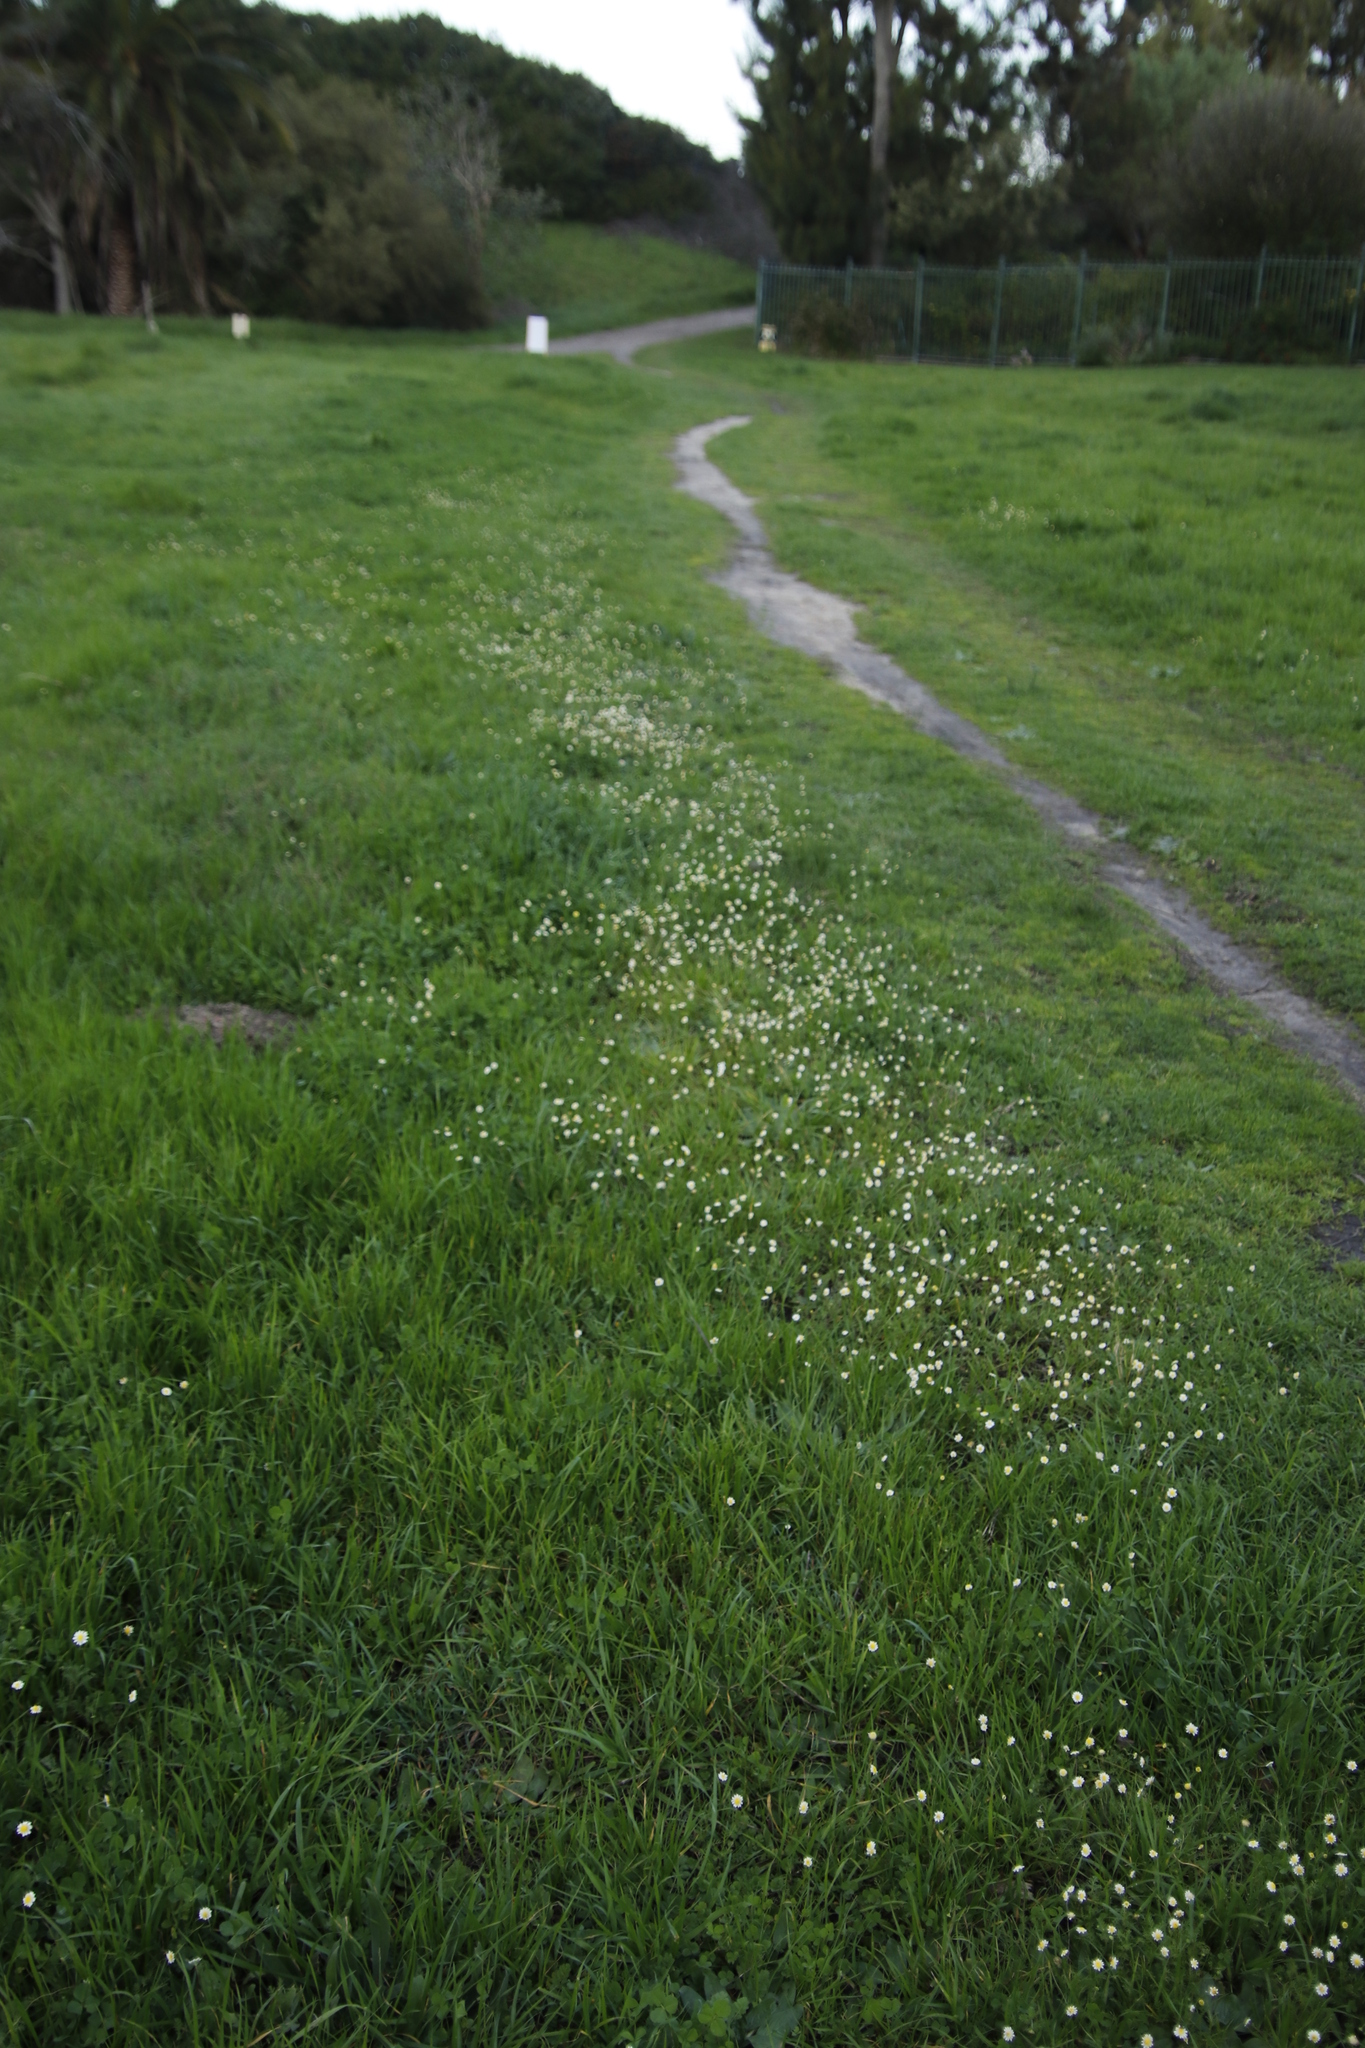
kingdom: Plantae
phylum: Tracheophyta
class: Magnoliopsida
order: Asterales
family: Asteraceae
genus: Cotula
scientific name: Cotula turbinata
